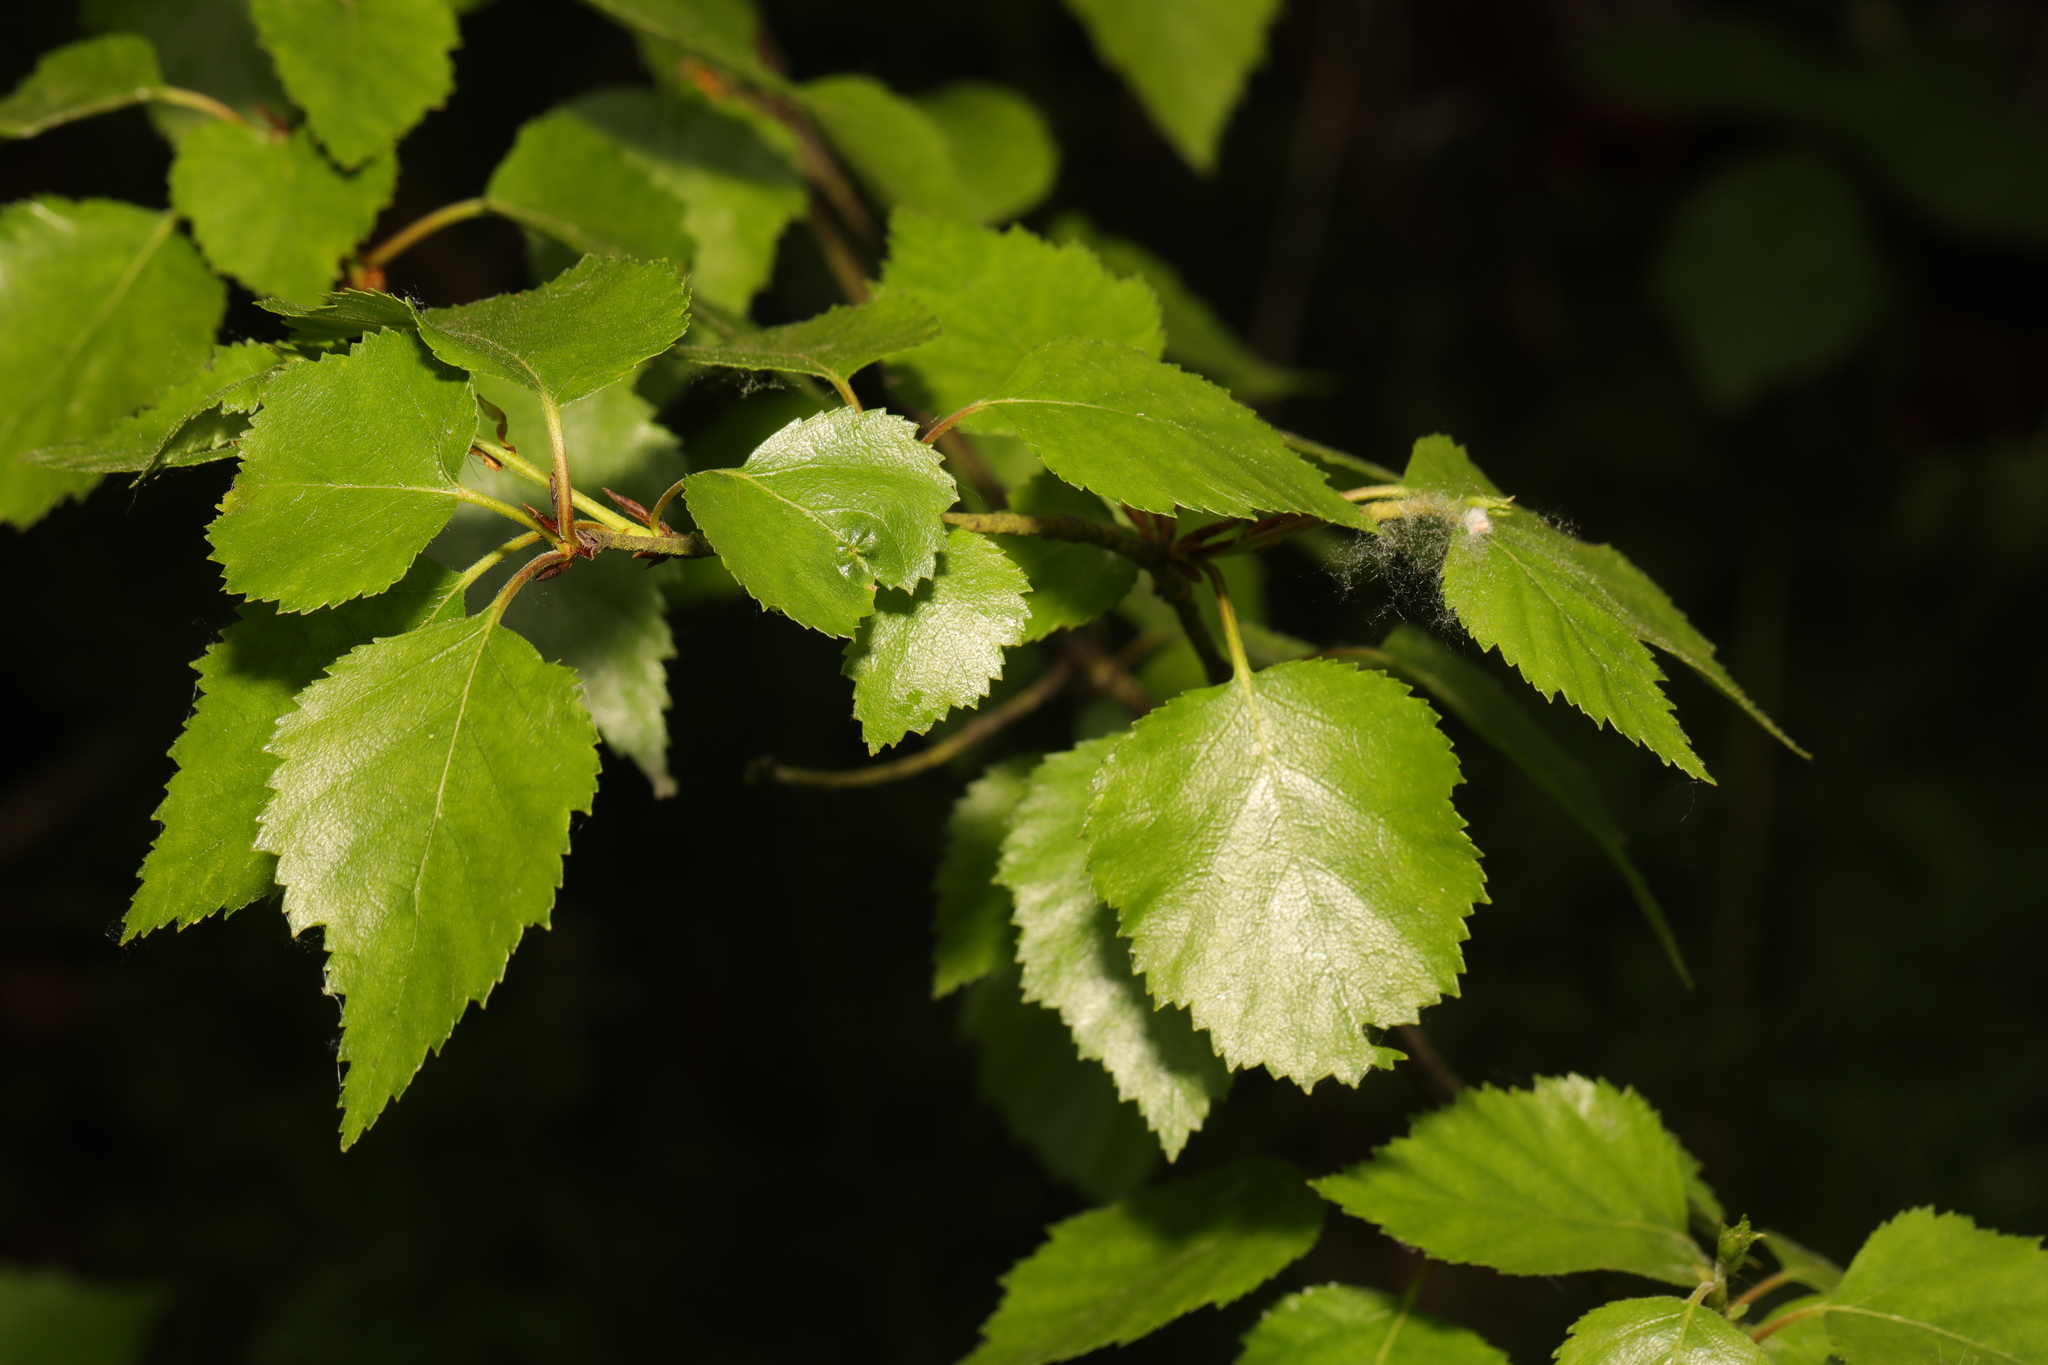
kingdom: Plantae
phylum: Tracheophyta
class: Magnoliopsida
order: Fagales
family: Betulaceae
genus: Betula
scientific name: Betula pubescens
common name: Downy birch
